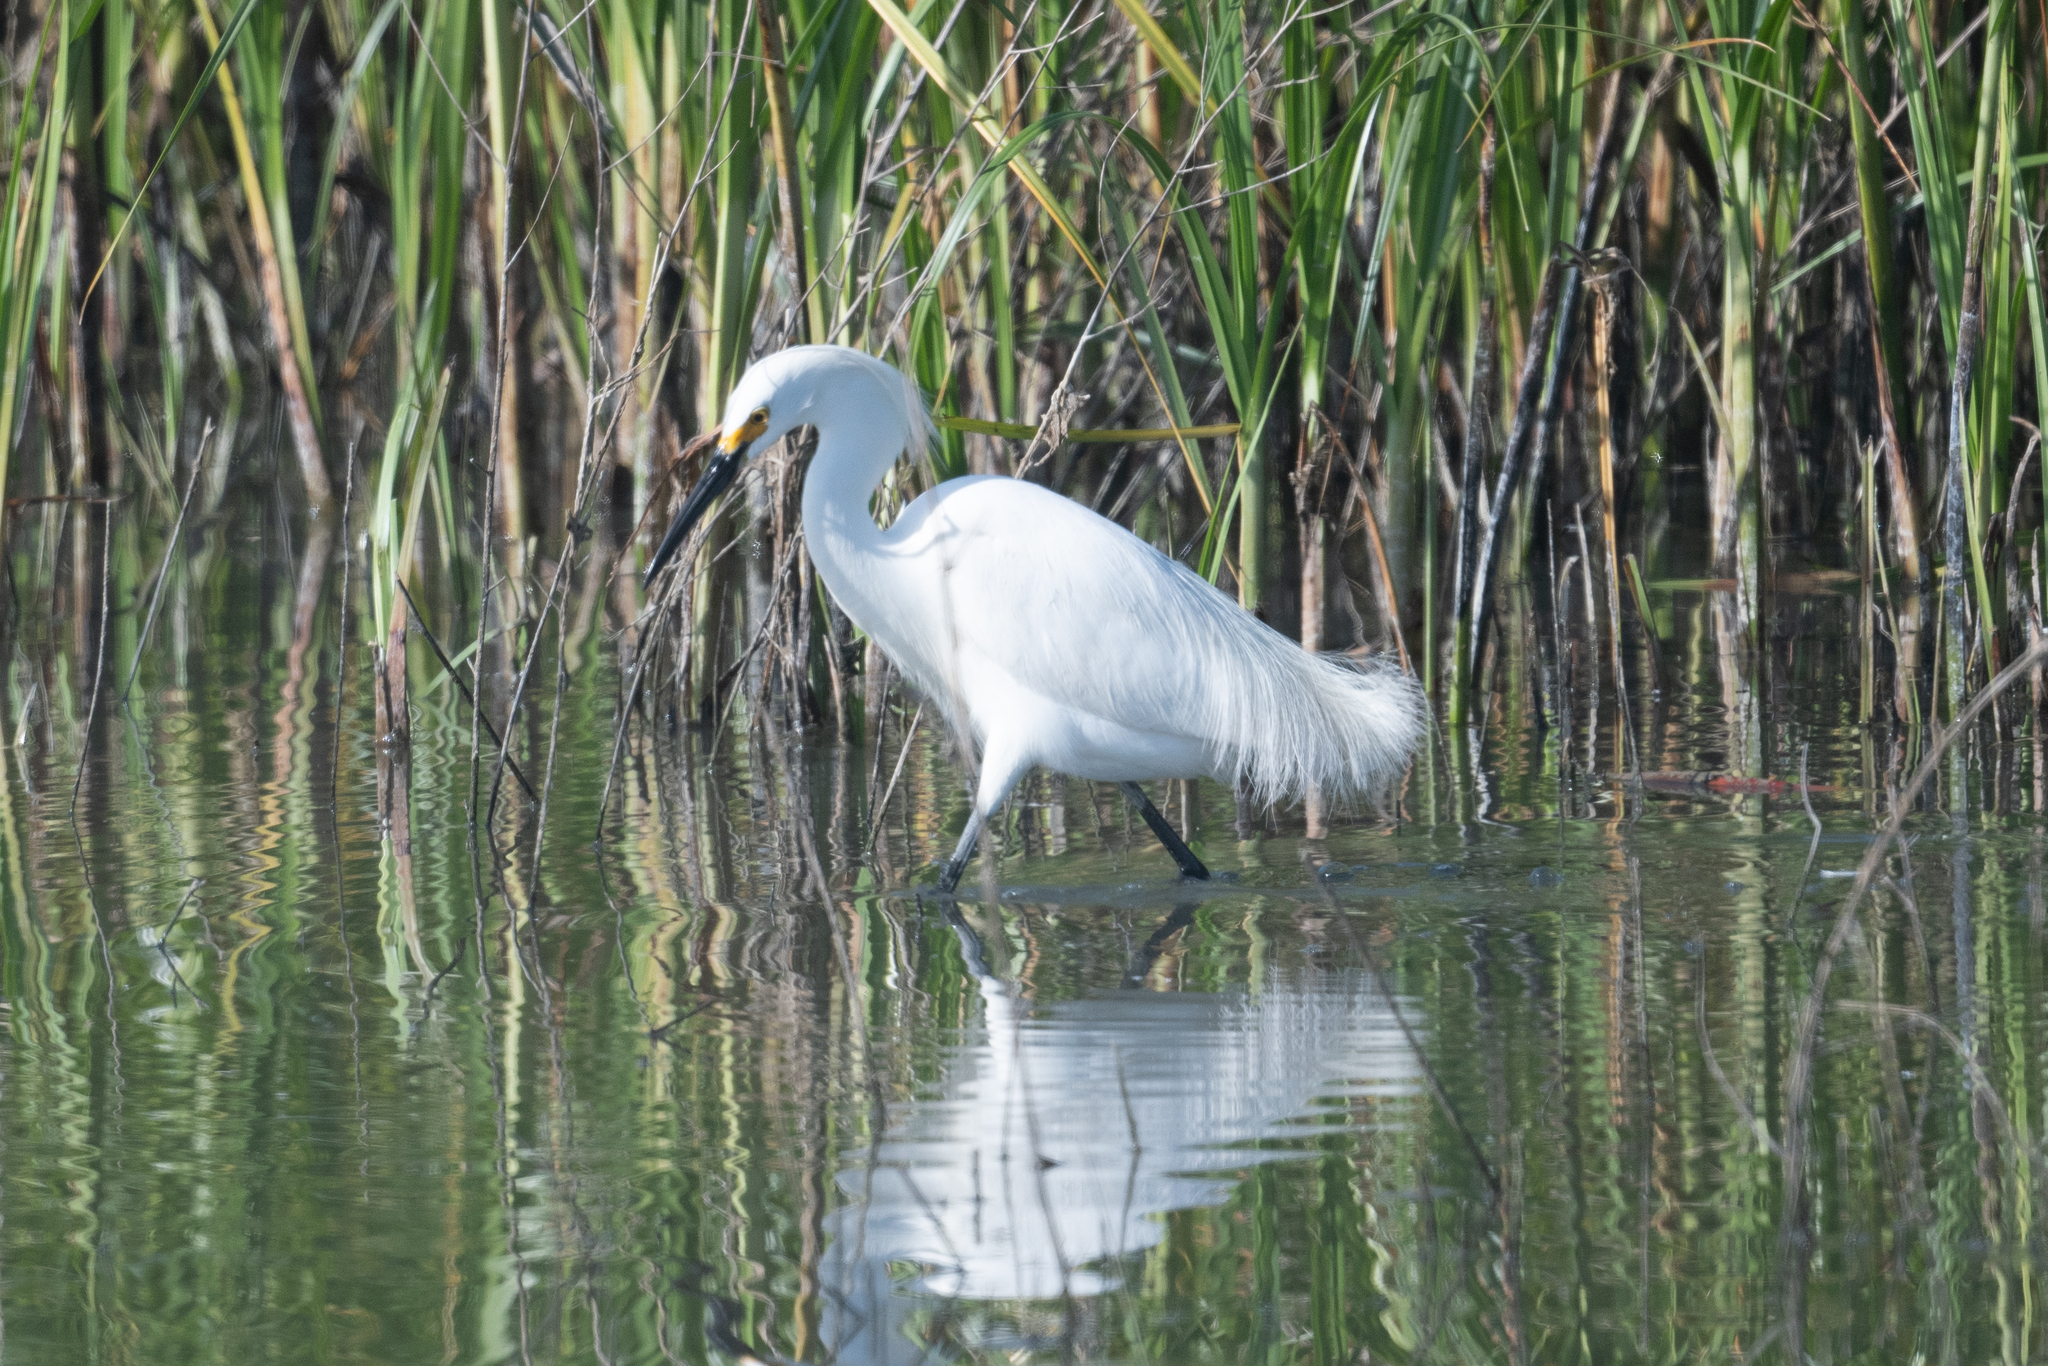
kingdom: Animalia
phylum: Chordata
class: Aves
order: Pelecaniformes
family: Ardeidae
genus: Egretta
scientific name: Egretta thula
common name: Snowy egret
